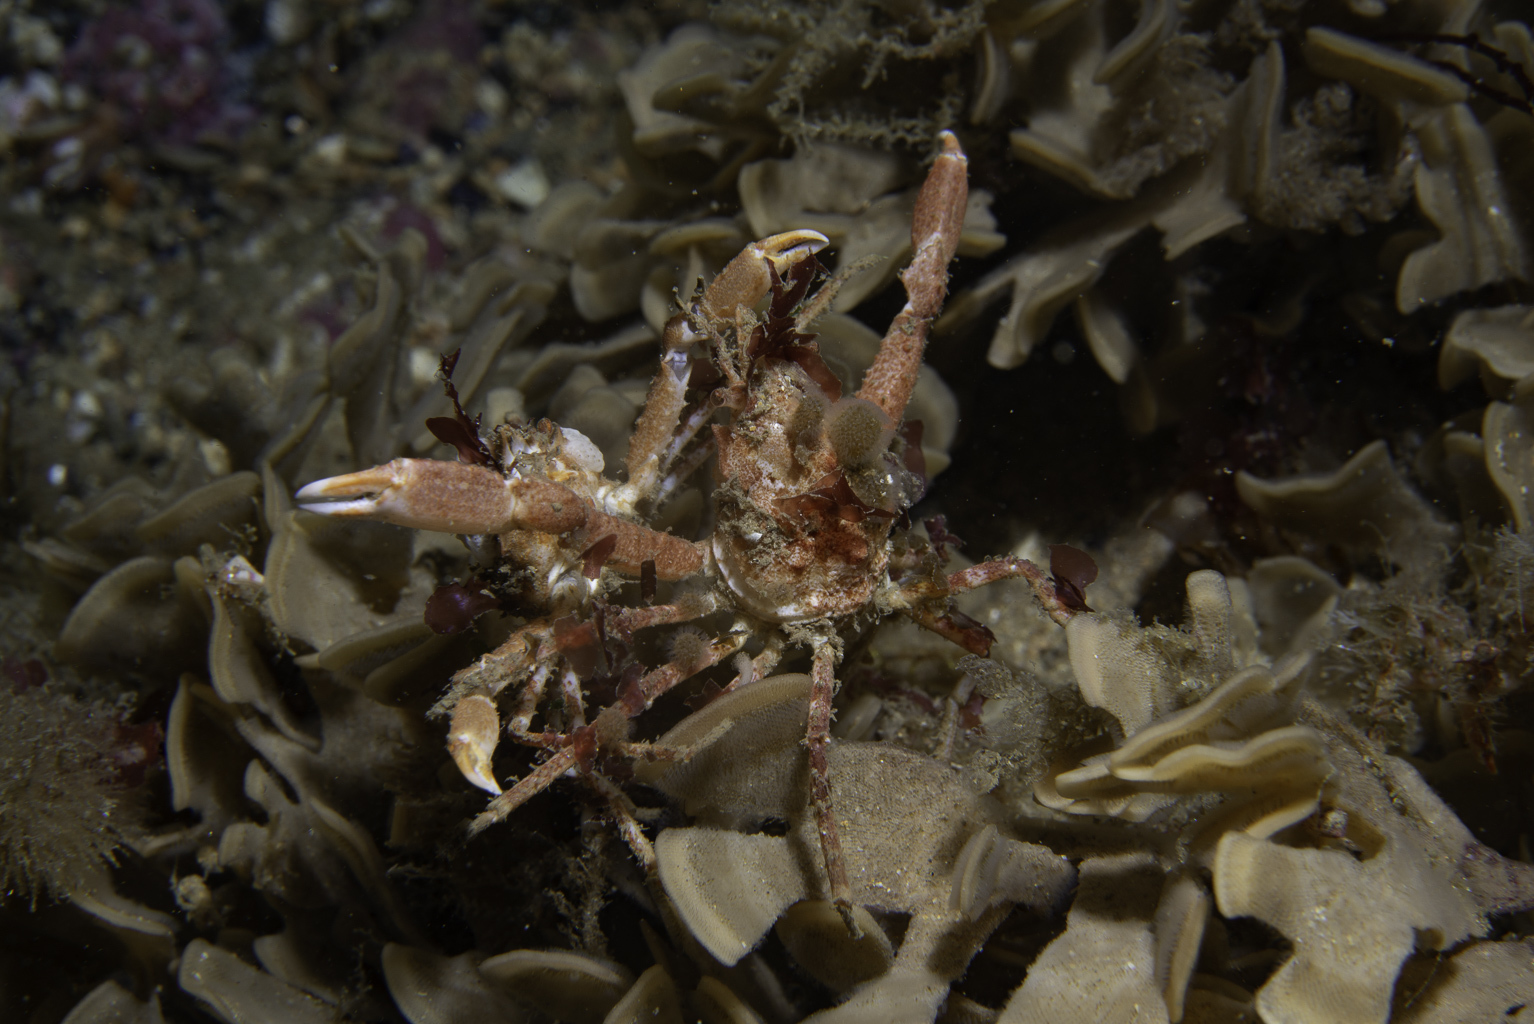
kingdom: Animalia
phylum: Arthropoda
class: Malacostraca
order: Decapoda
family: Oregoniidae
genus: Hyas
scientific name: Hyas coarctatus
